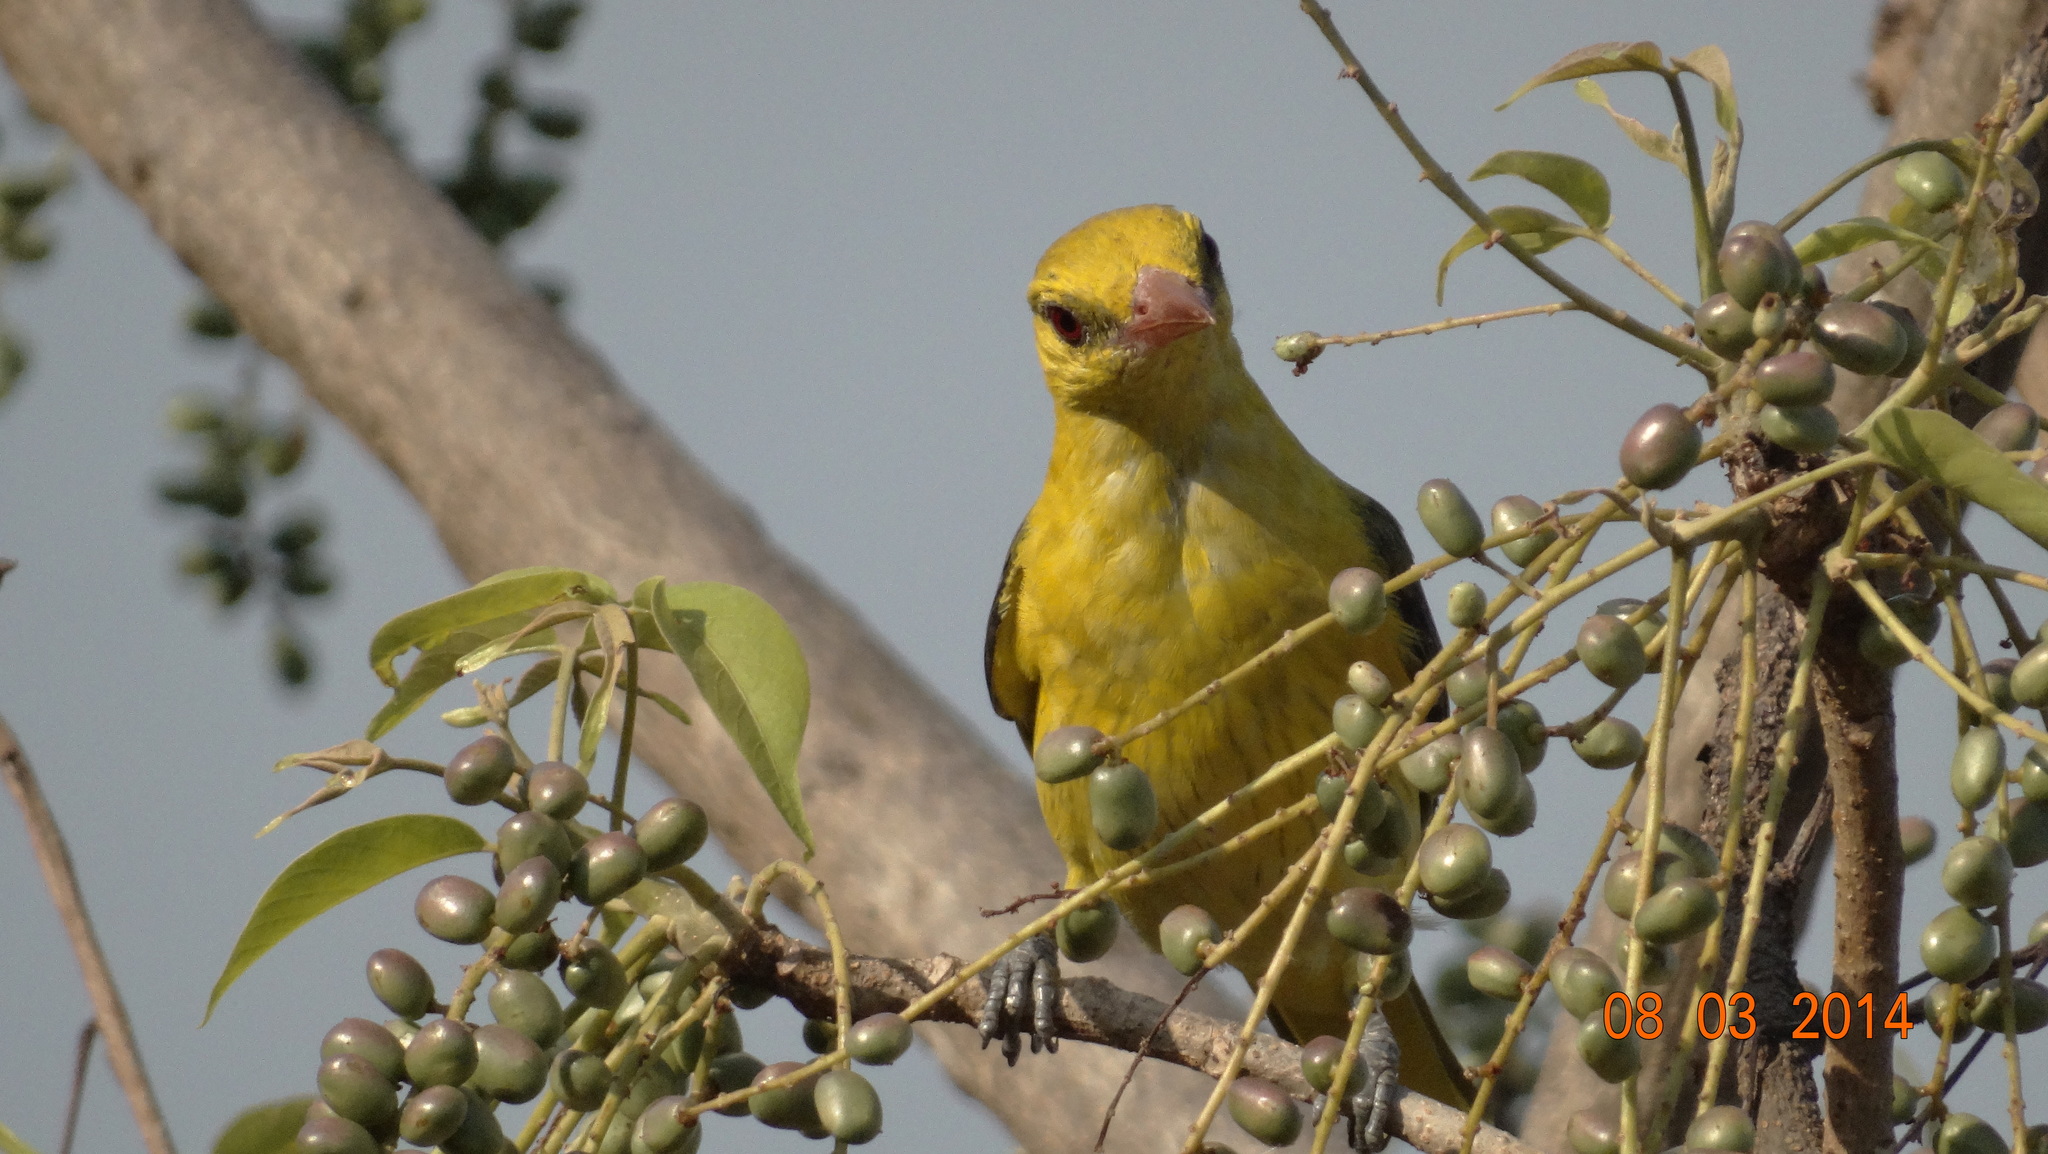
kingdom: Animalia
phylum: Chordata
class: Aves
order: Passeriformes
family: Oriolidae
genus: Oriolus
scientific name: Oriolus kundoo
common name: Indian golden oriole
